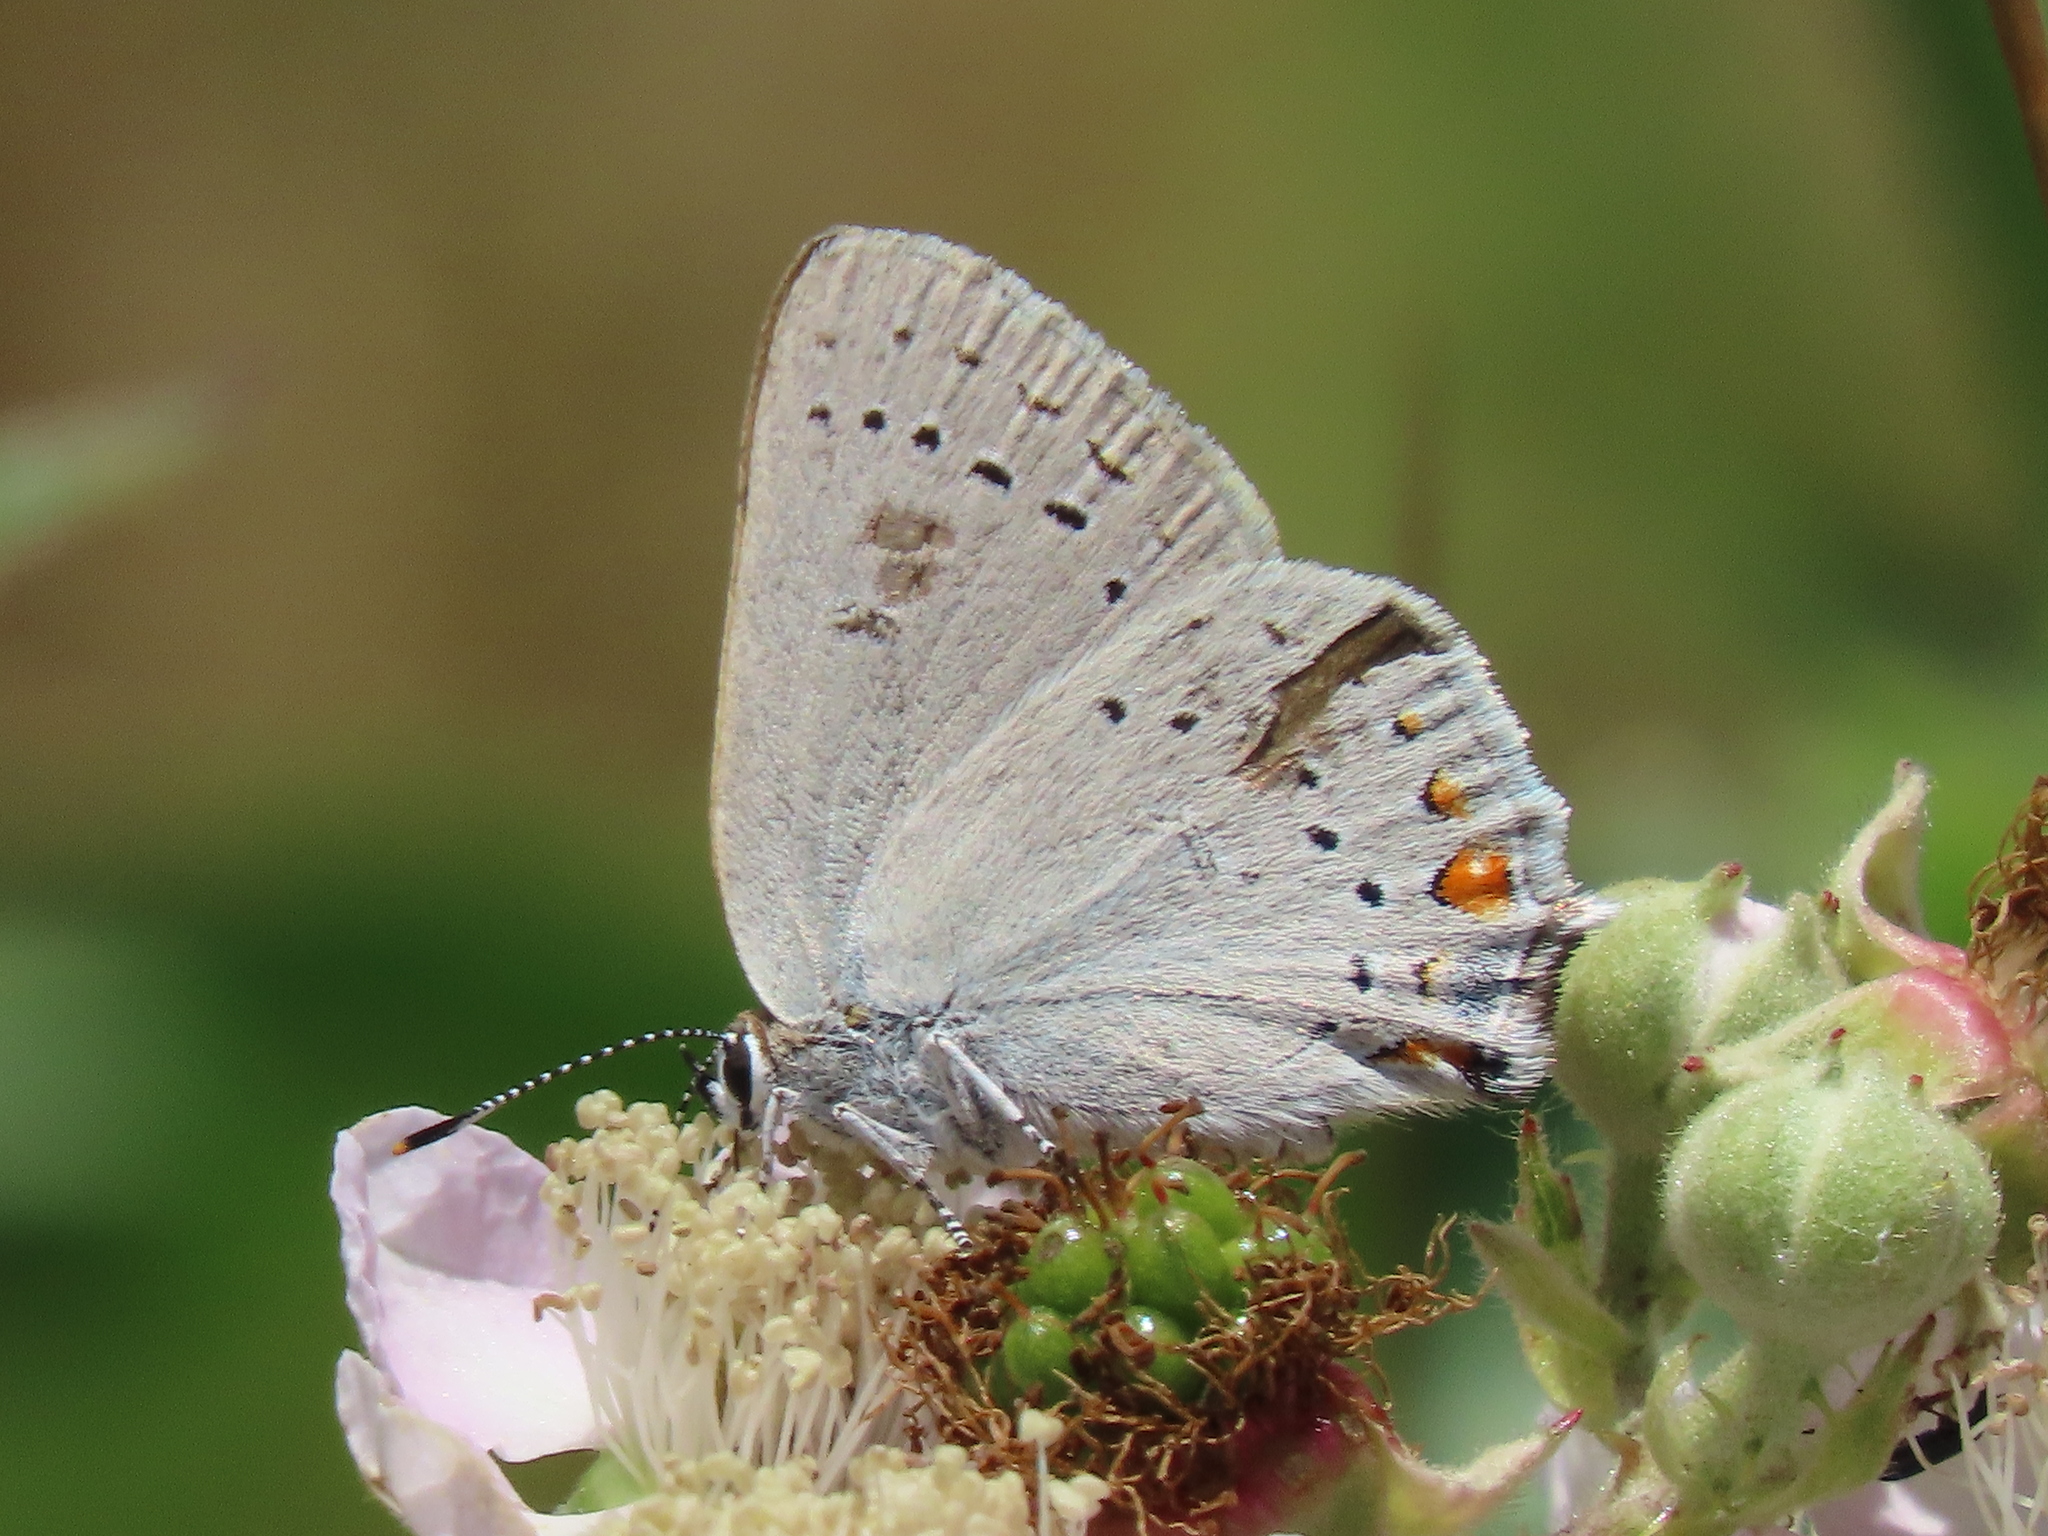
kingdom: Animalia
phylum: Arthropoda
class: Insecta
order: Lepidoptera
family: Lycaenidae
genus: Strymon
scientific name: Strymon sylvinus
